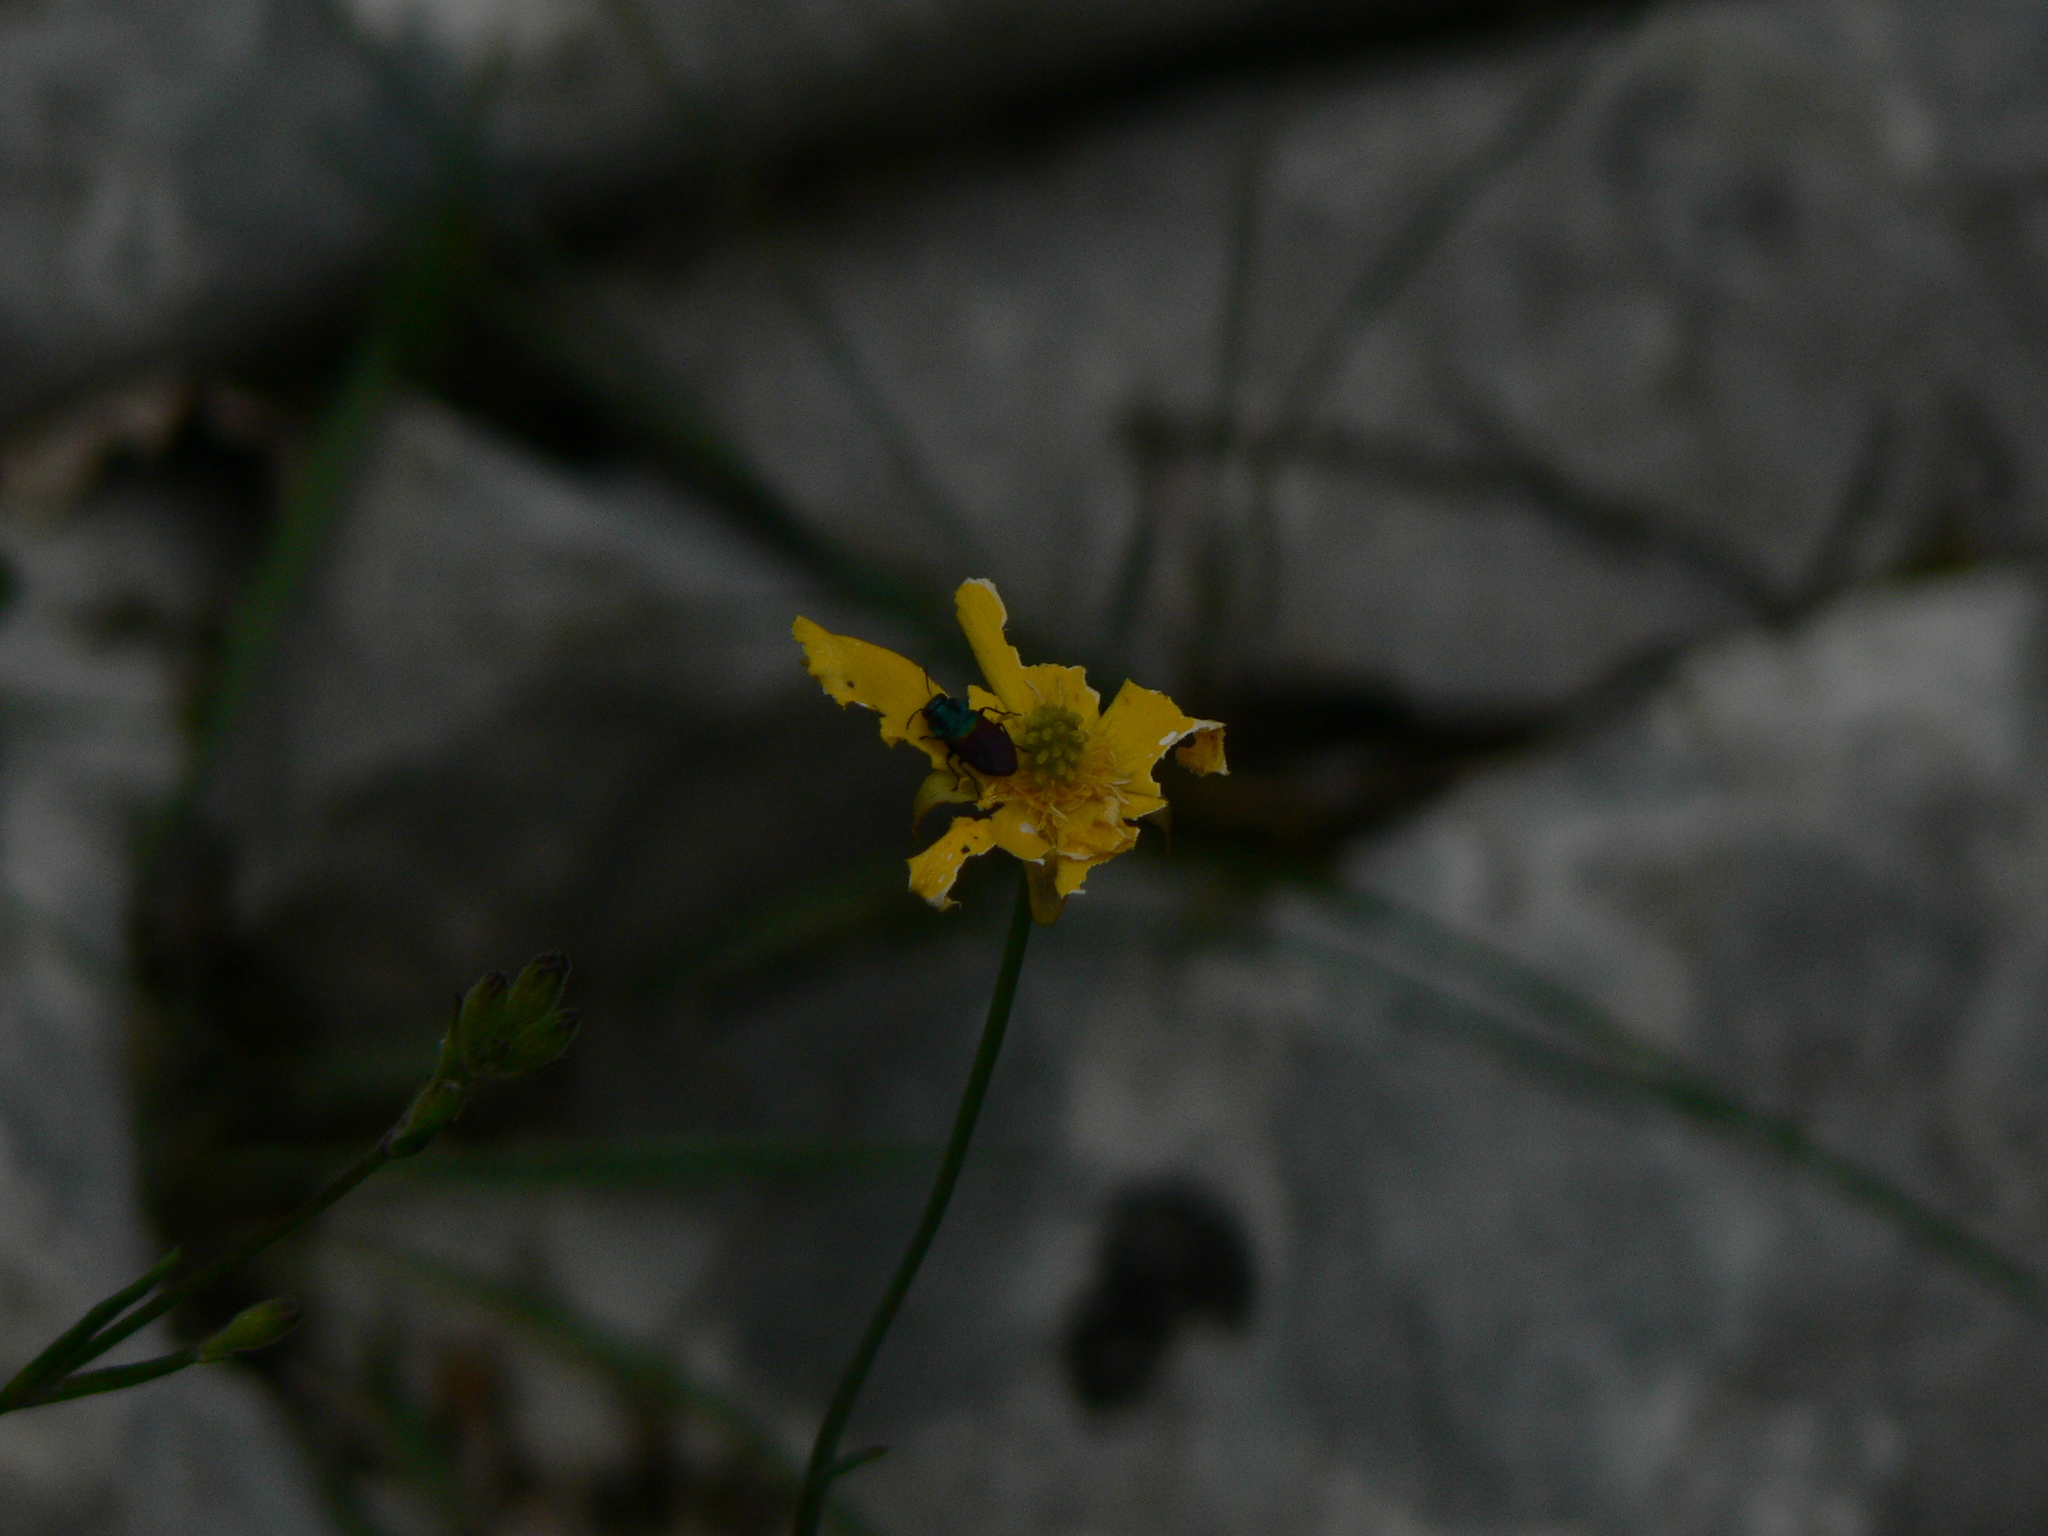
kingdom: Animalia
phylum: Arthropoda
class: Insecta
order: Coleoptera
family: Buprestidae
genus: Anthaxia
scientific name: Anthaxia salicis
